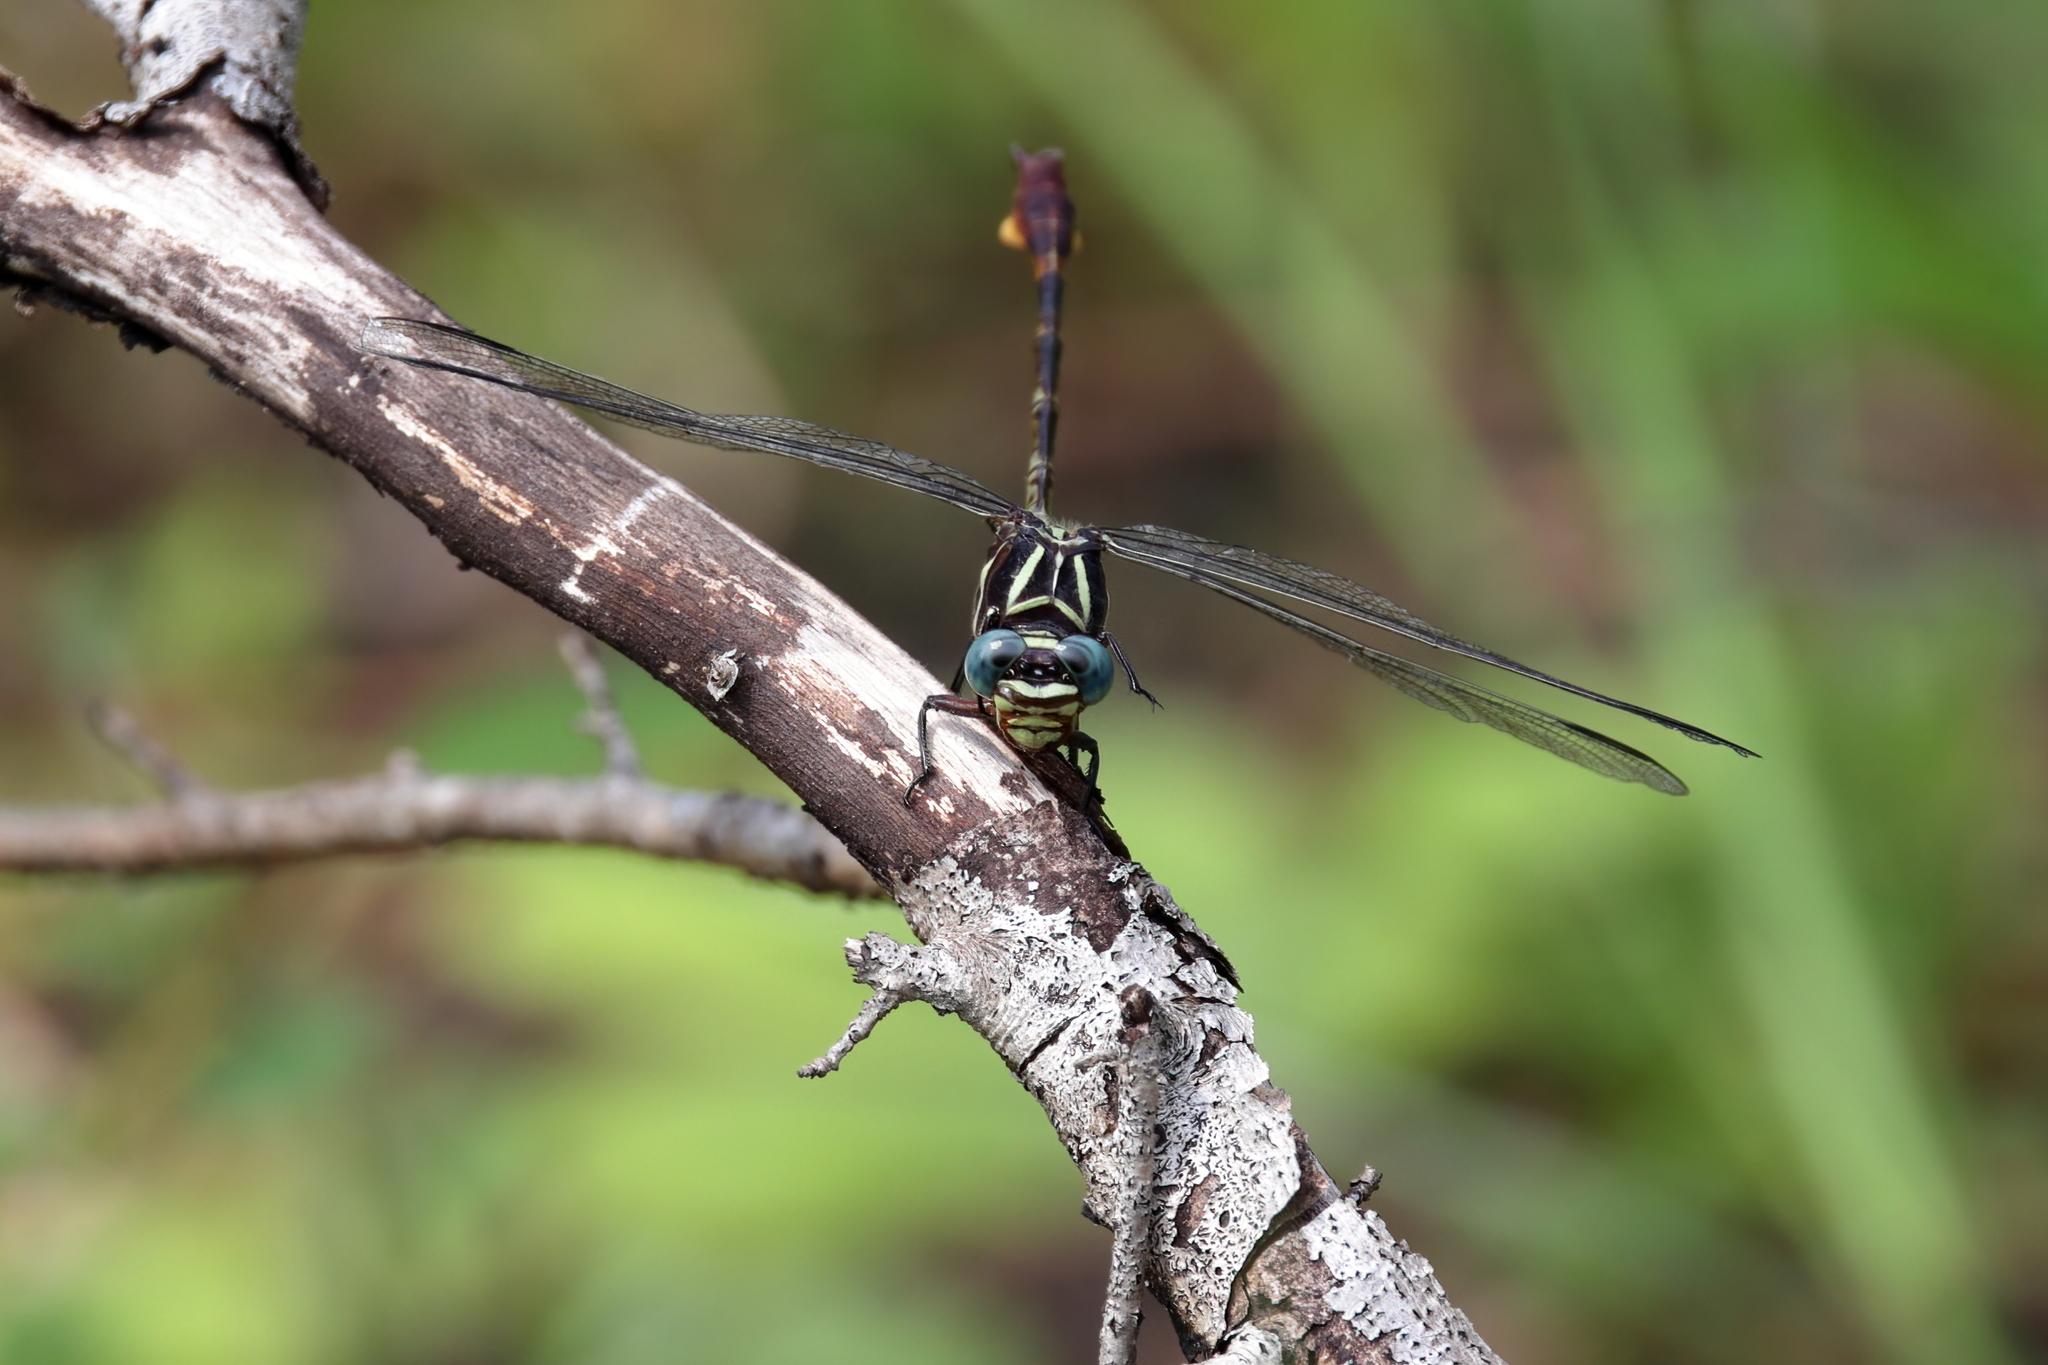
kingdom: Animalia
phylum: Arthropoda
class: Insecta
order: Odonata
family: Gomphidae
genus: Aphylla
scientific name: Aphylla williamsoni
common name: Two-striped forceptail
